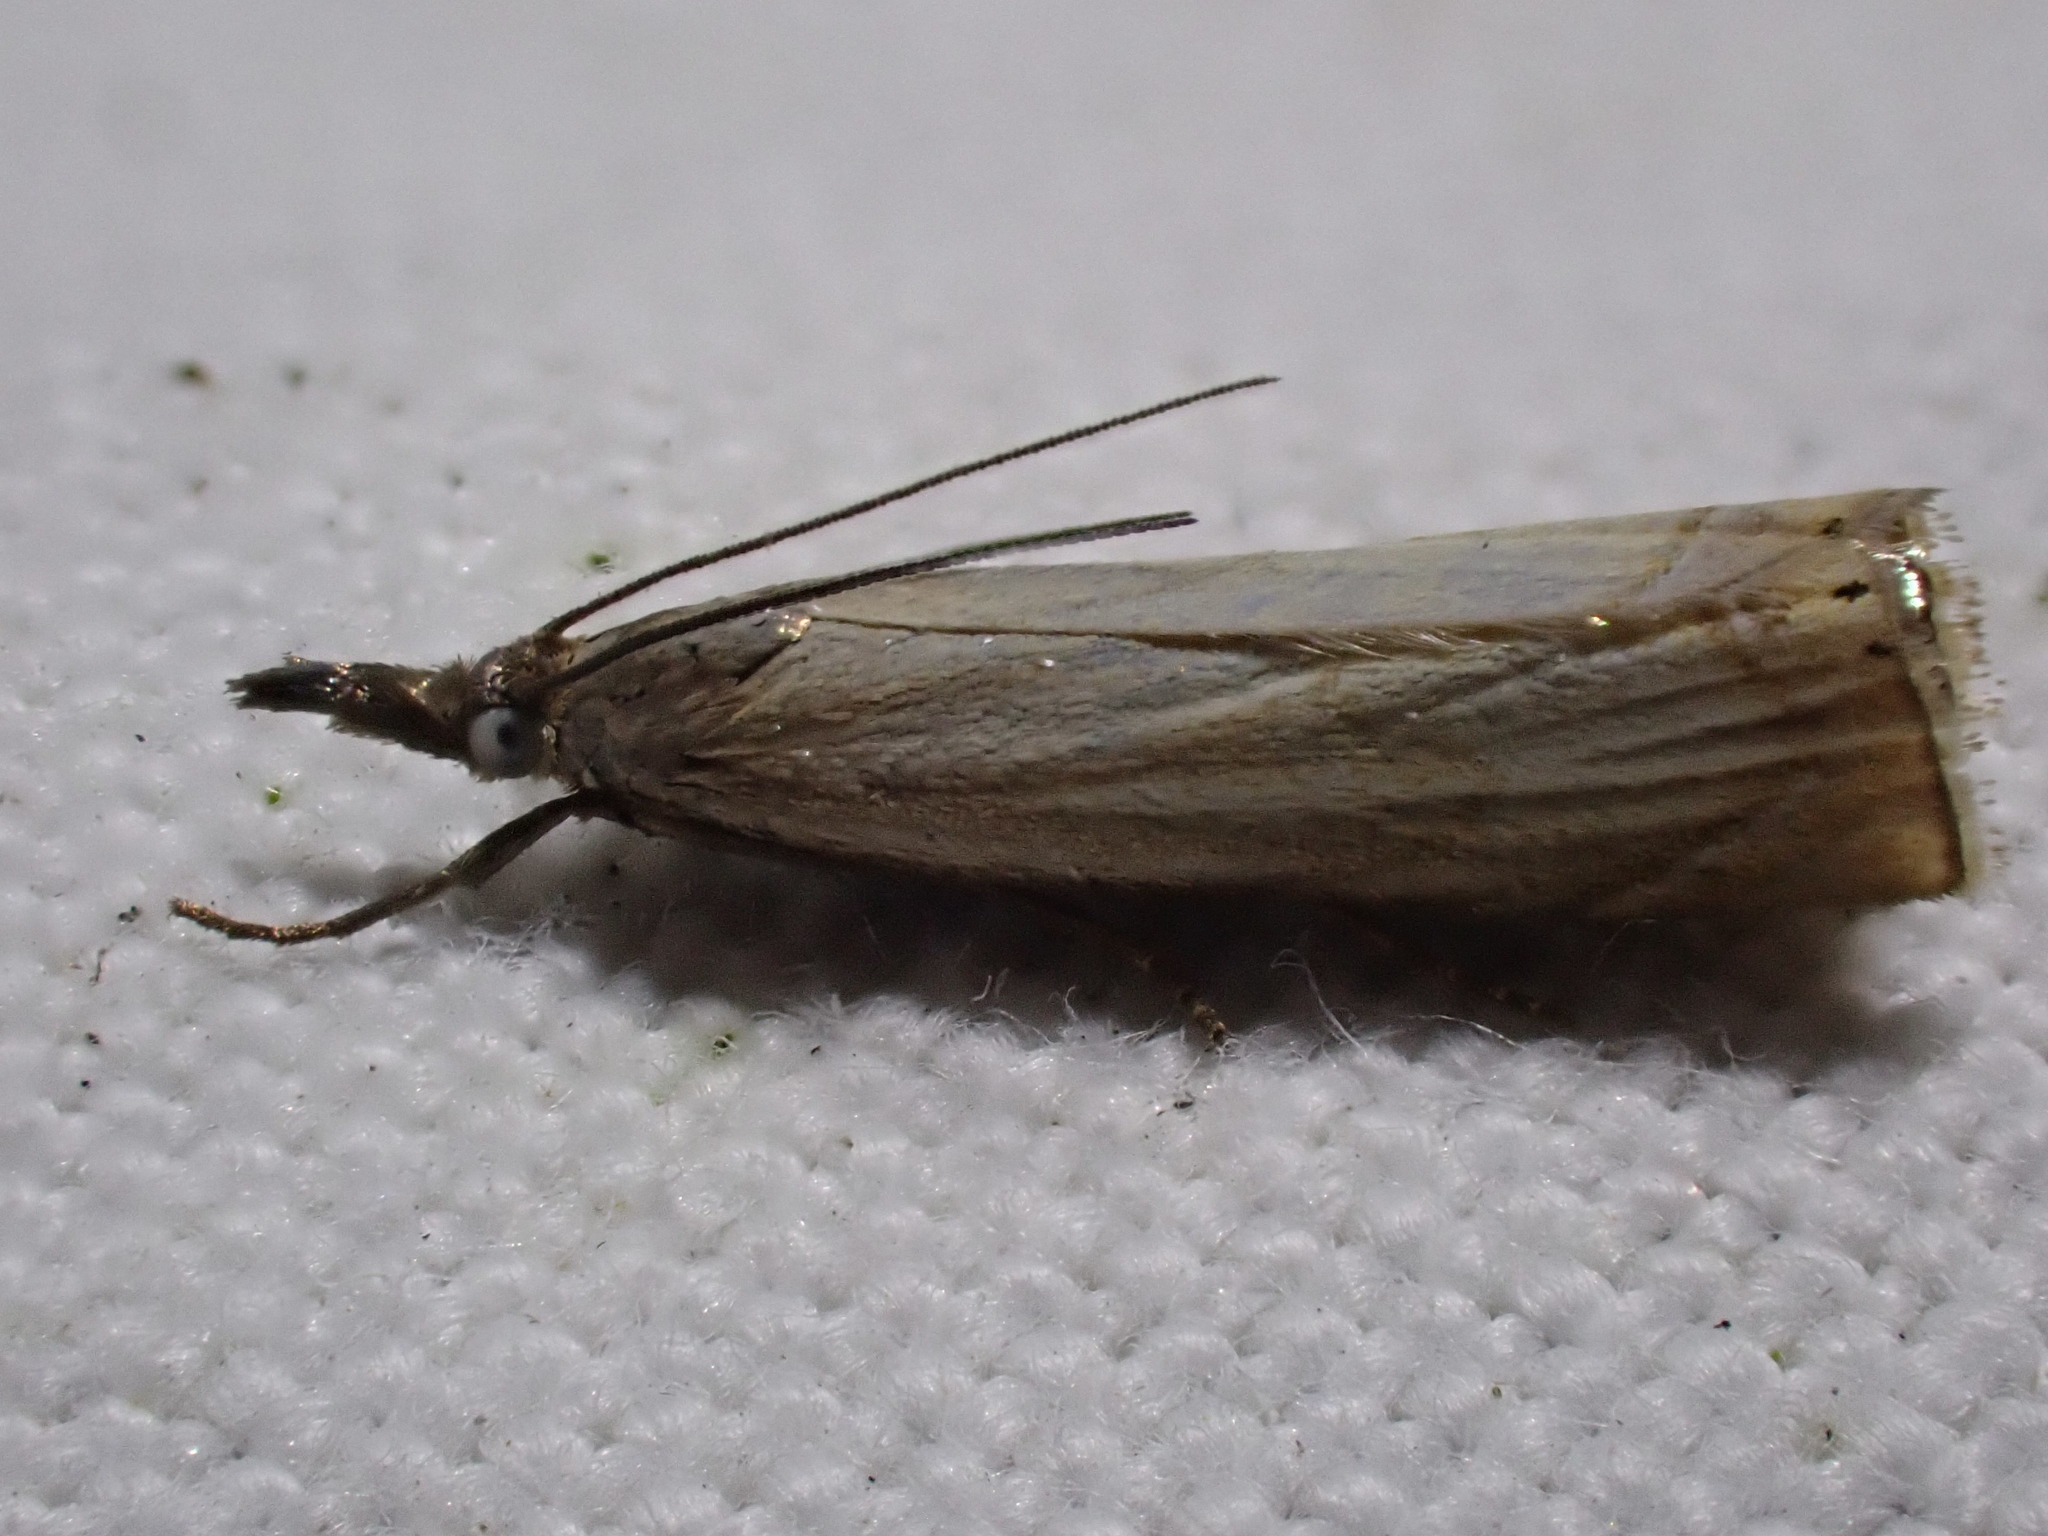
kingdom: Animalia
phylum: Arthropoda
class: Insecta
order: Lepidoptera
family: Crambidae
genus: Chrysoteuchia
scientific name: Chrysoteuchia culmella
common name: Garden grass-veneer
